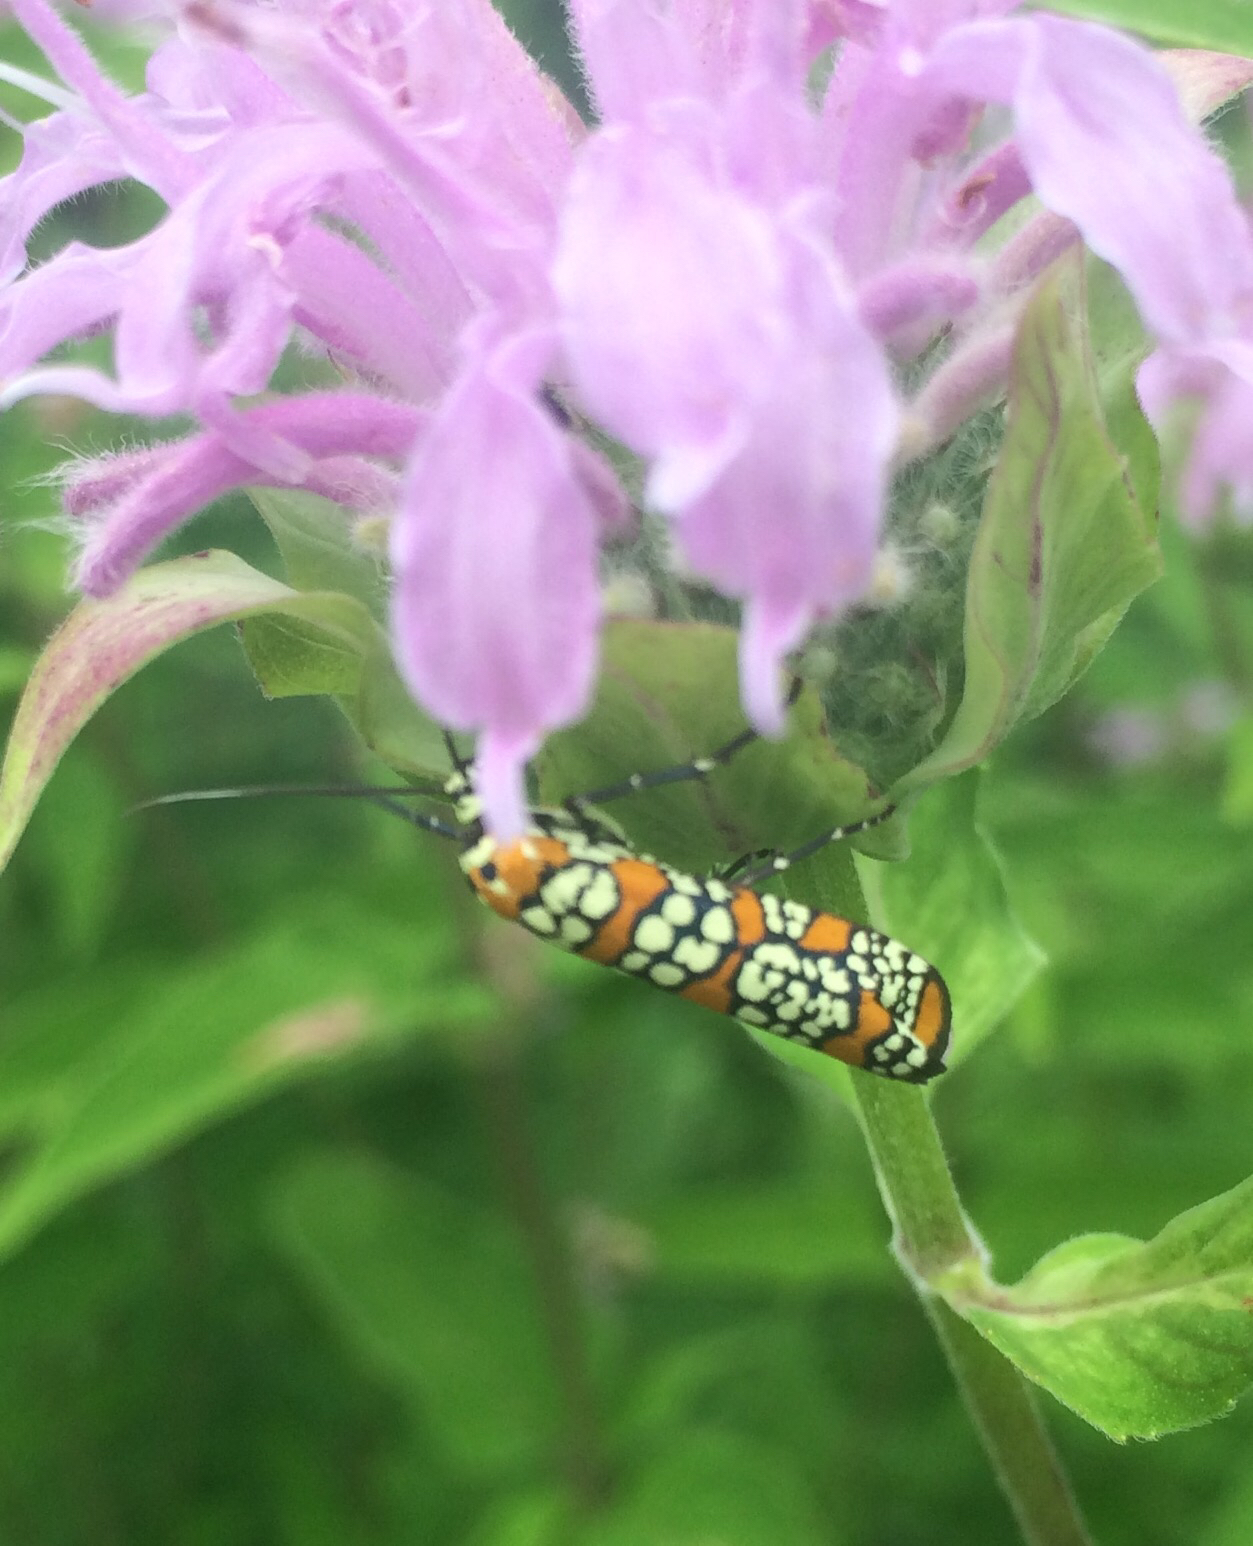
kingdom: Animalia
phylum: Arthropoda
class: Insecta
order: Lepidoptera
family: Attevidae
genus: Atteva
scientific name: Atteva punctella
